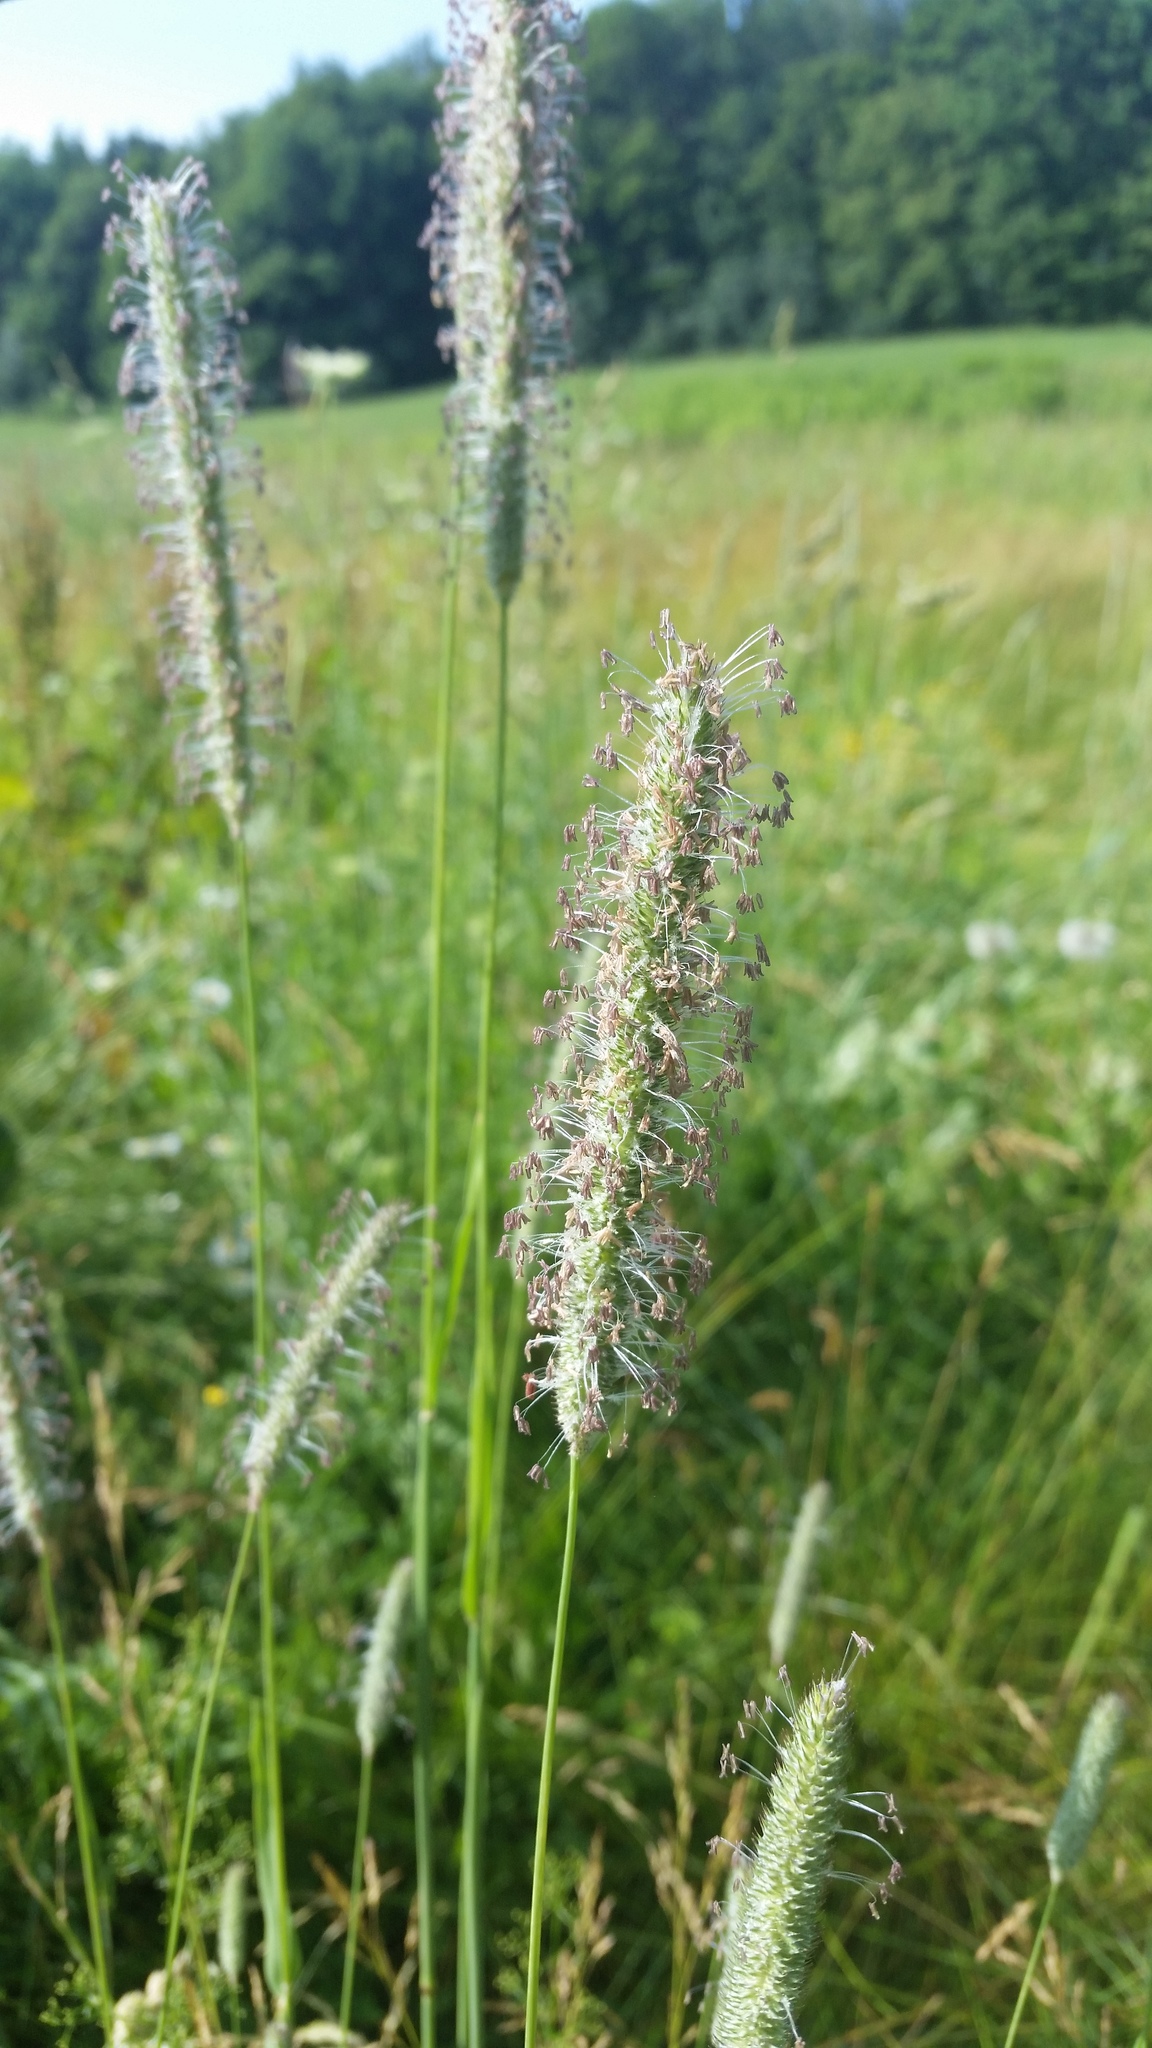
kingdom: Plantae
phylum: Tracheophyta
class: Liliopsida
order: Poales
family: Poaceae
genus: Phleum
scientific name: Phleum pratense
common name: Timothy grass
